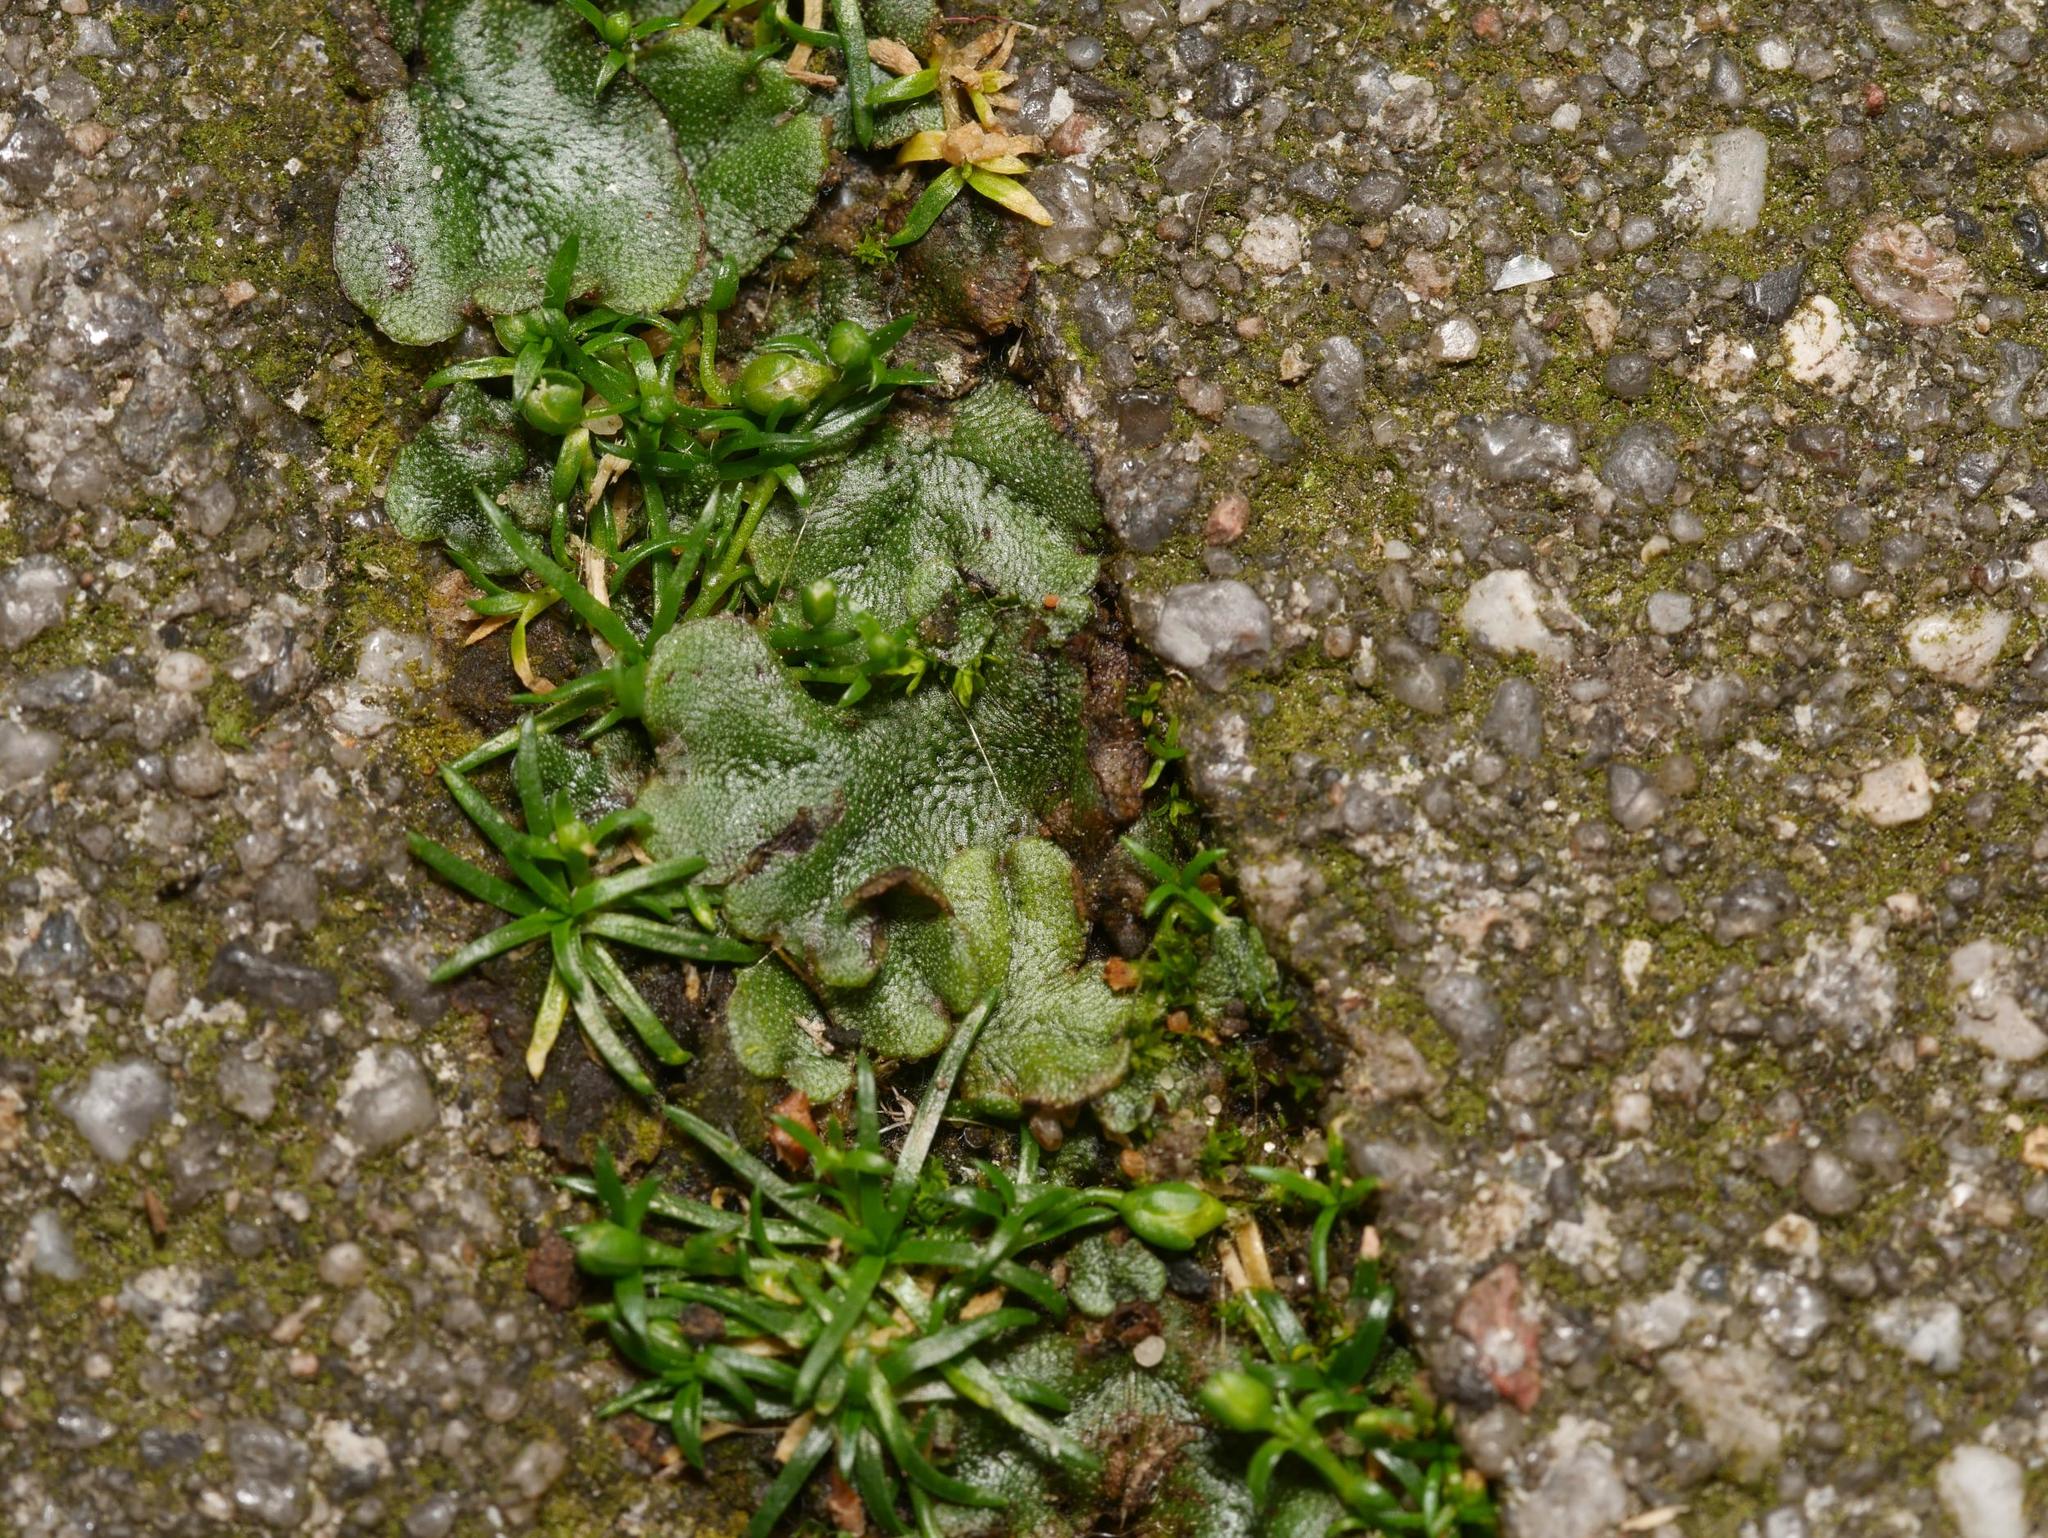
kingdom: Plantae
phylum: Marchantiophyta
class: Marchantiopsida
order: Marchantiales
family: Marchantiaceae
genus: Marchantia
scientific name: Marchantia polymorpha
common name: Common liverwort
